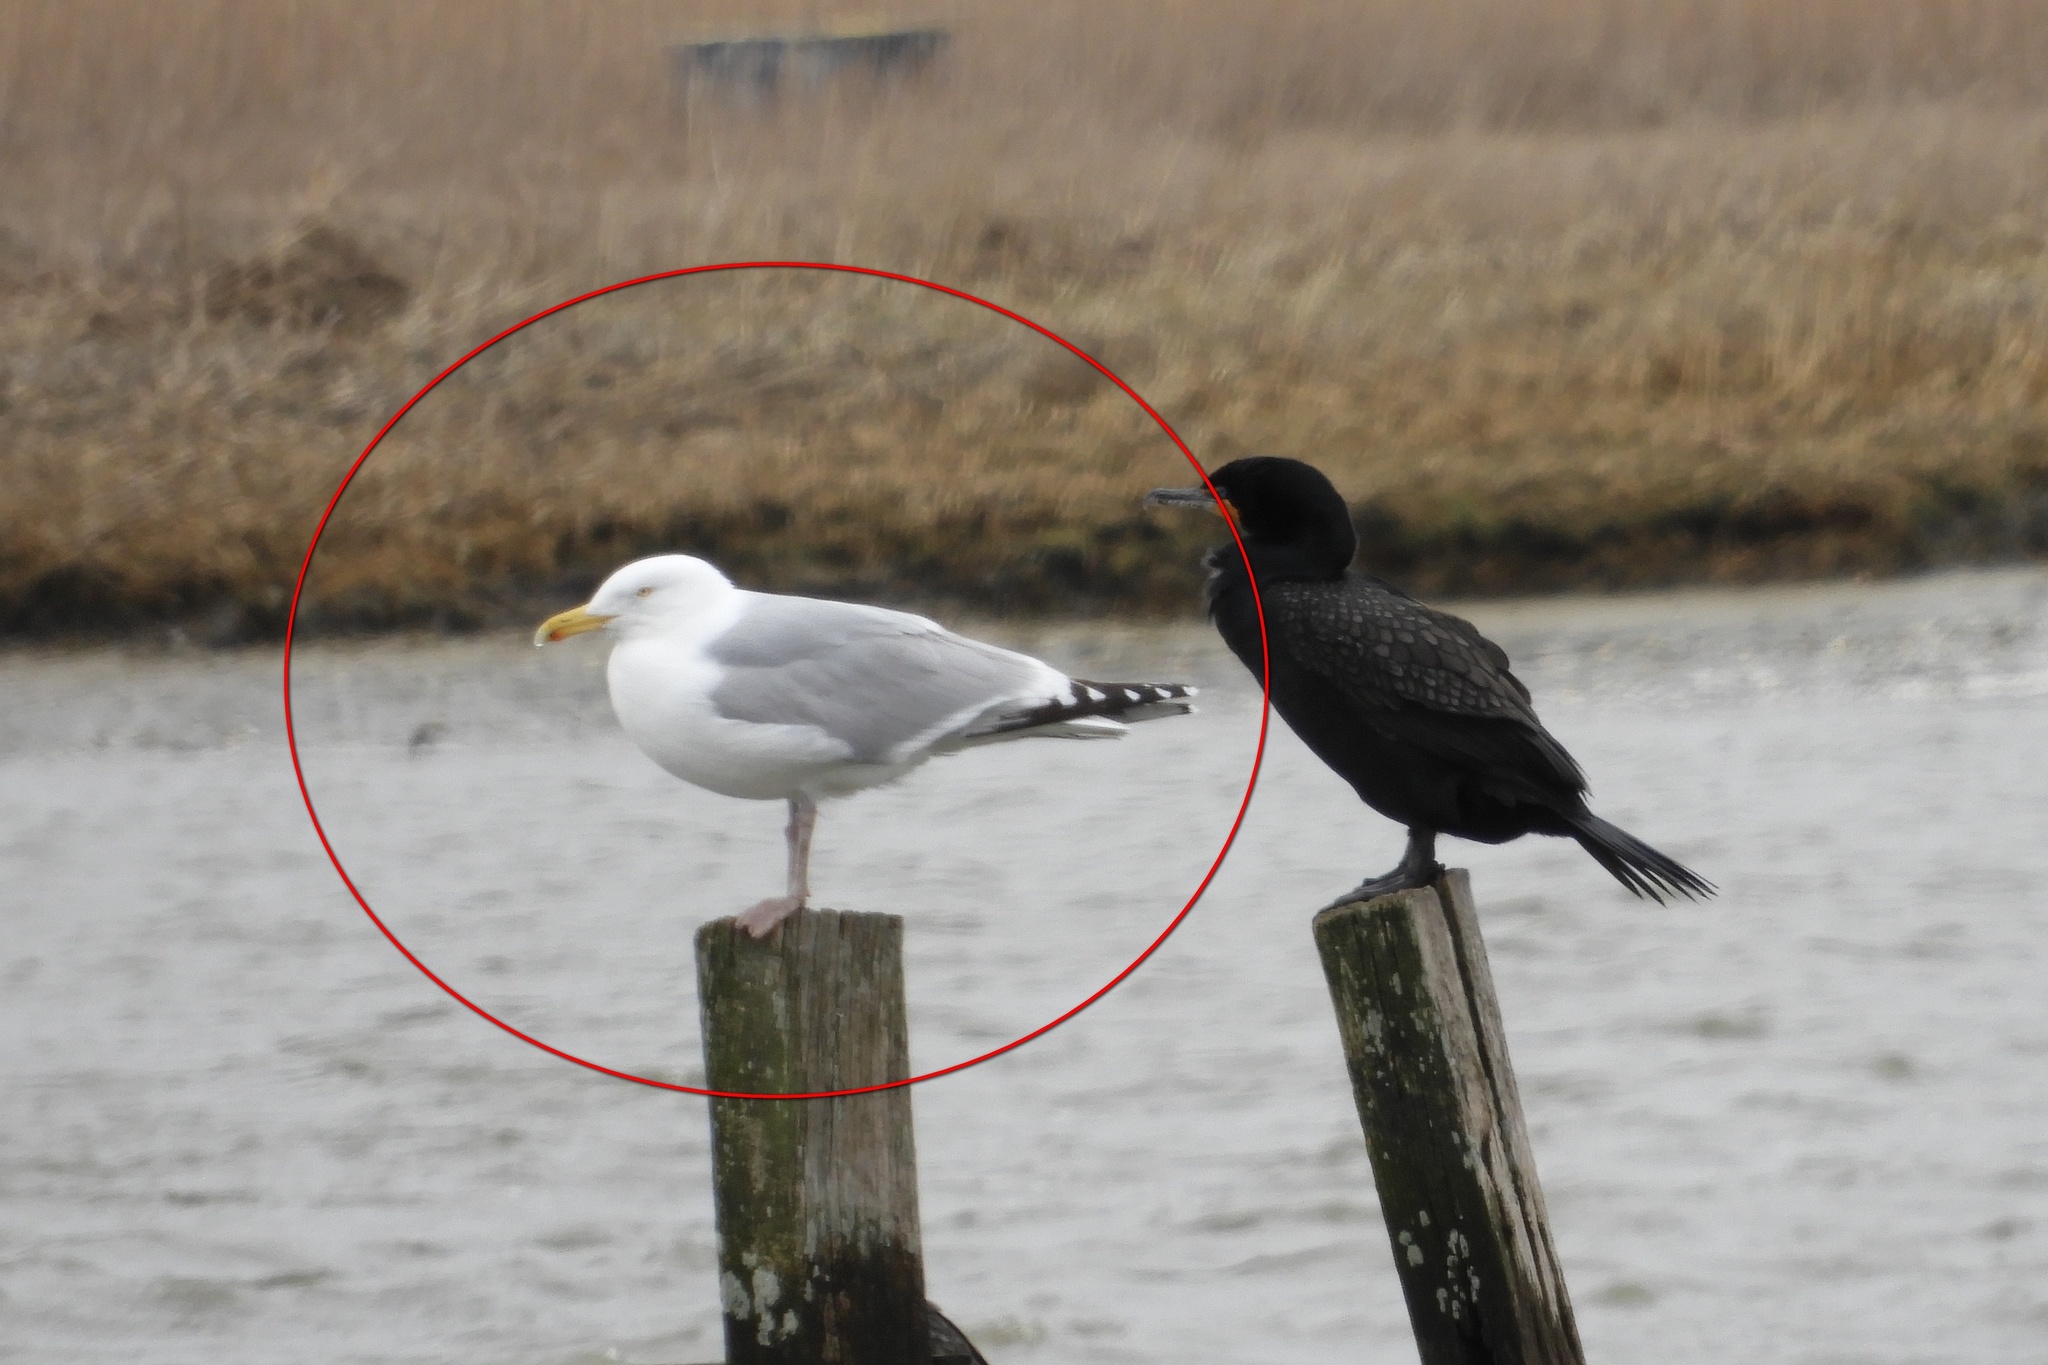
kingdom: Animalia
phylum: Chordata
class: Aves
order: Charadriiformes
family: Laridae
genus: Larus
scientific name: Larus argentatus
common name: Herring gull
